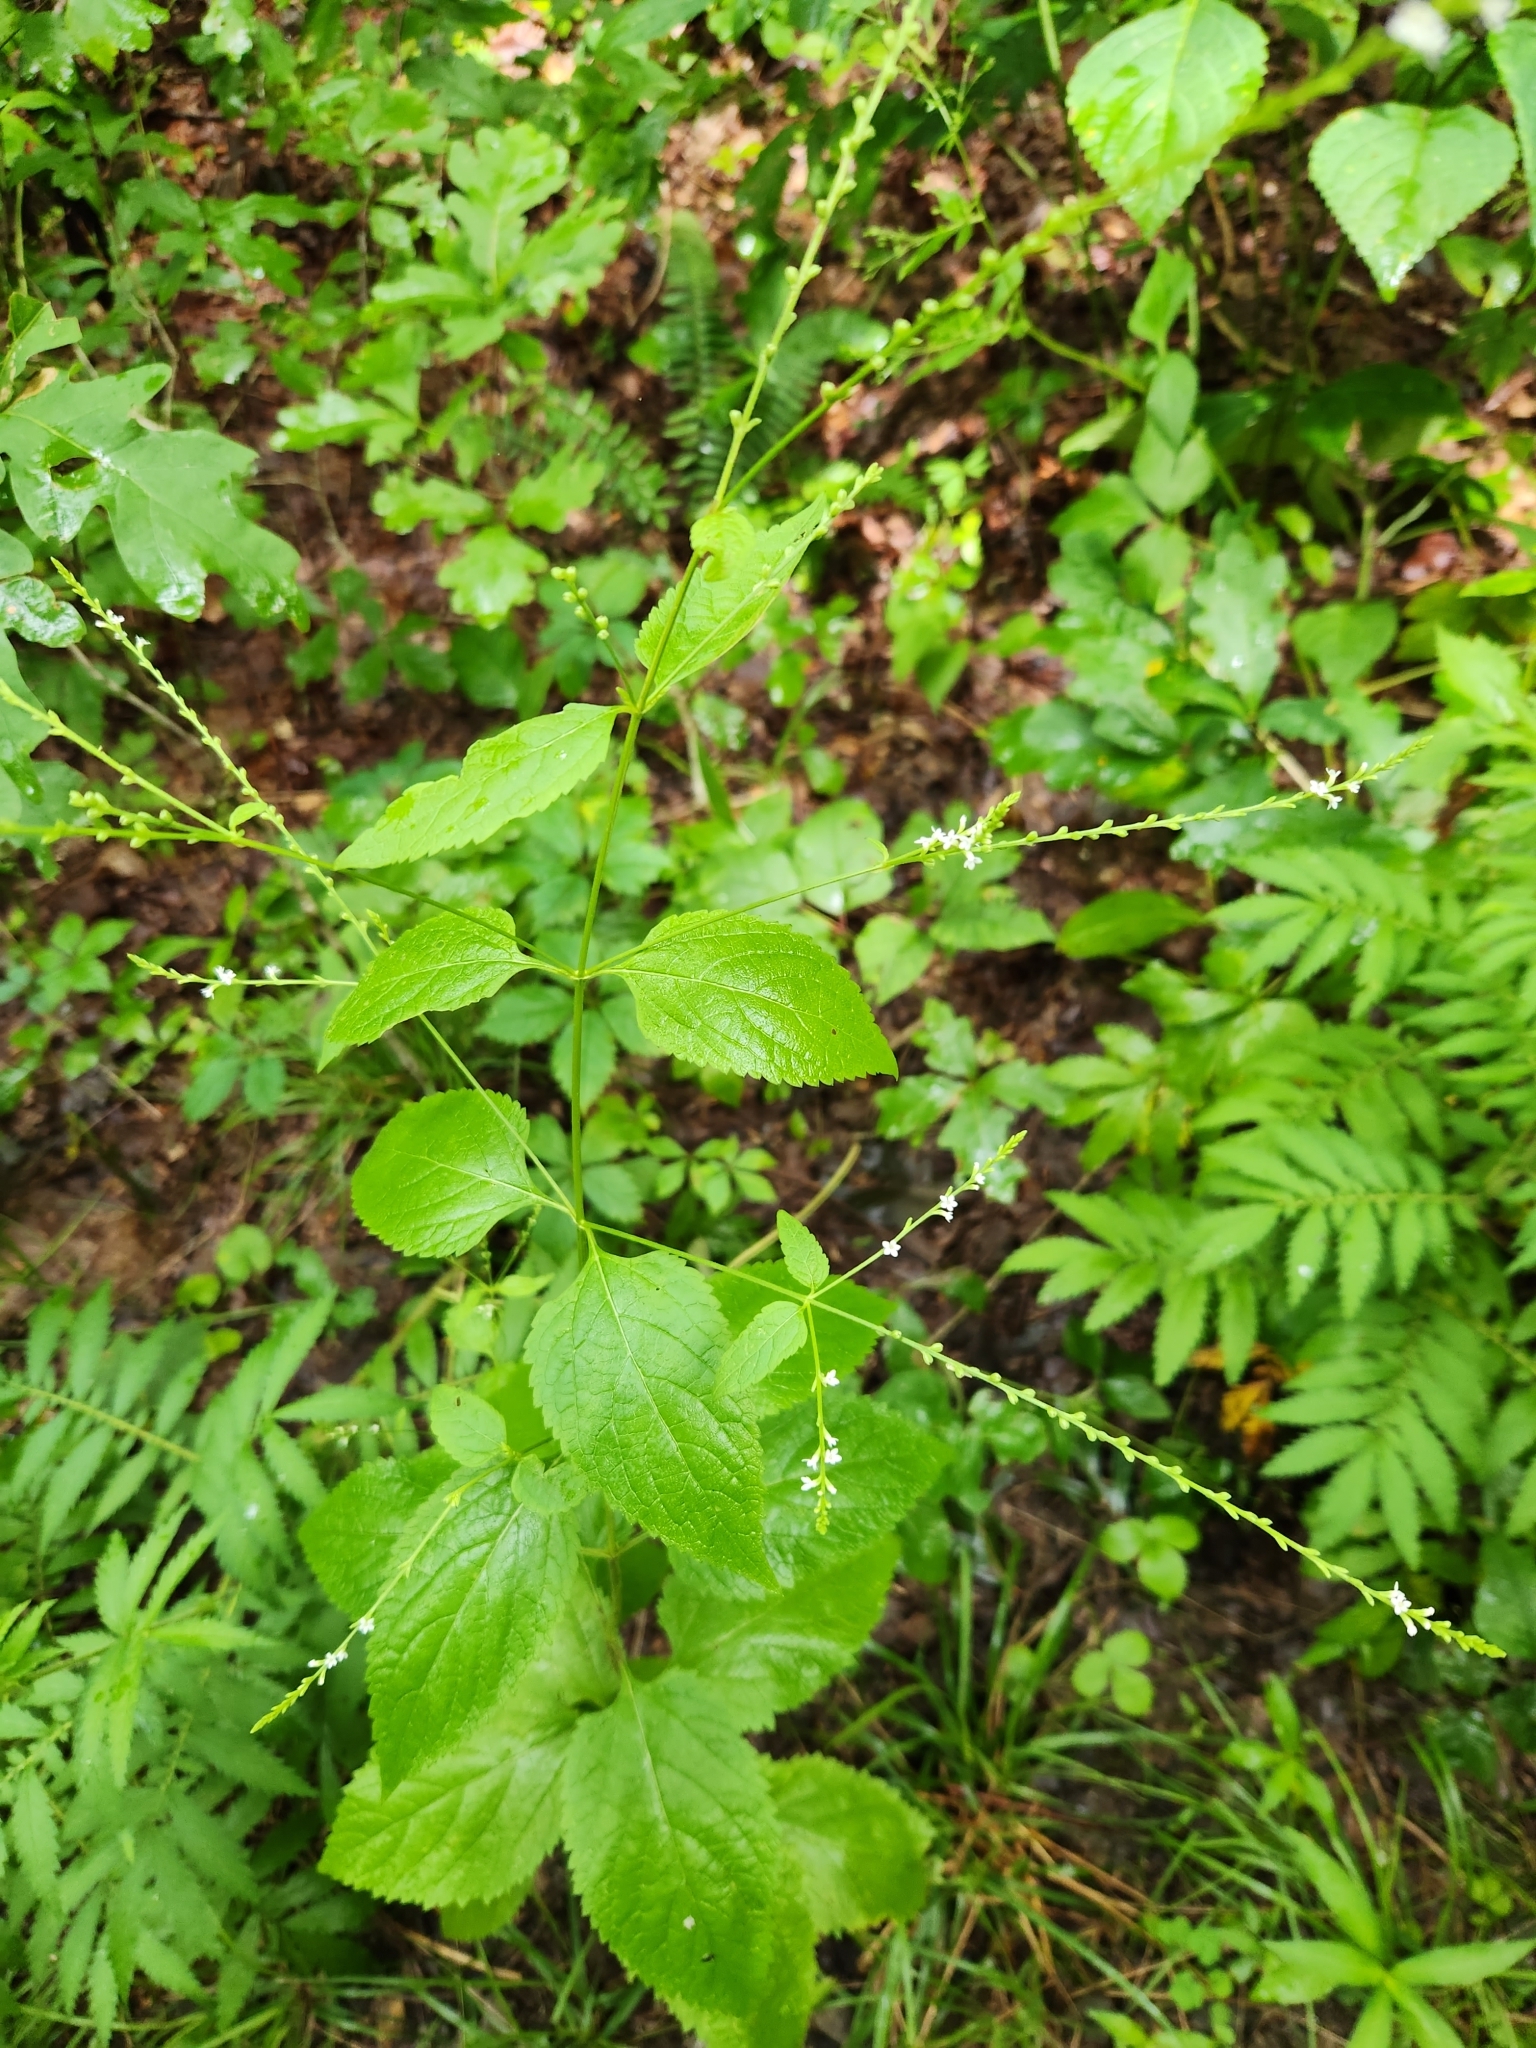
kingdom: Plantae
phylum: Tracheophyta
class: Magnoliopsida
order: Lamiales
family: Verbenaceae
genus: Verbena
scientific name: Verbena urticifolia
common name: Nettle-leaved vervain
